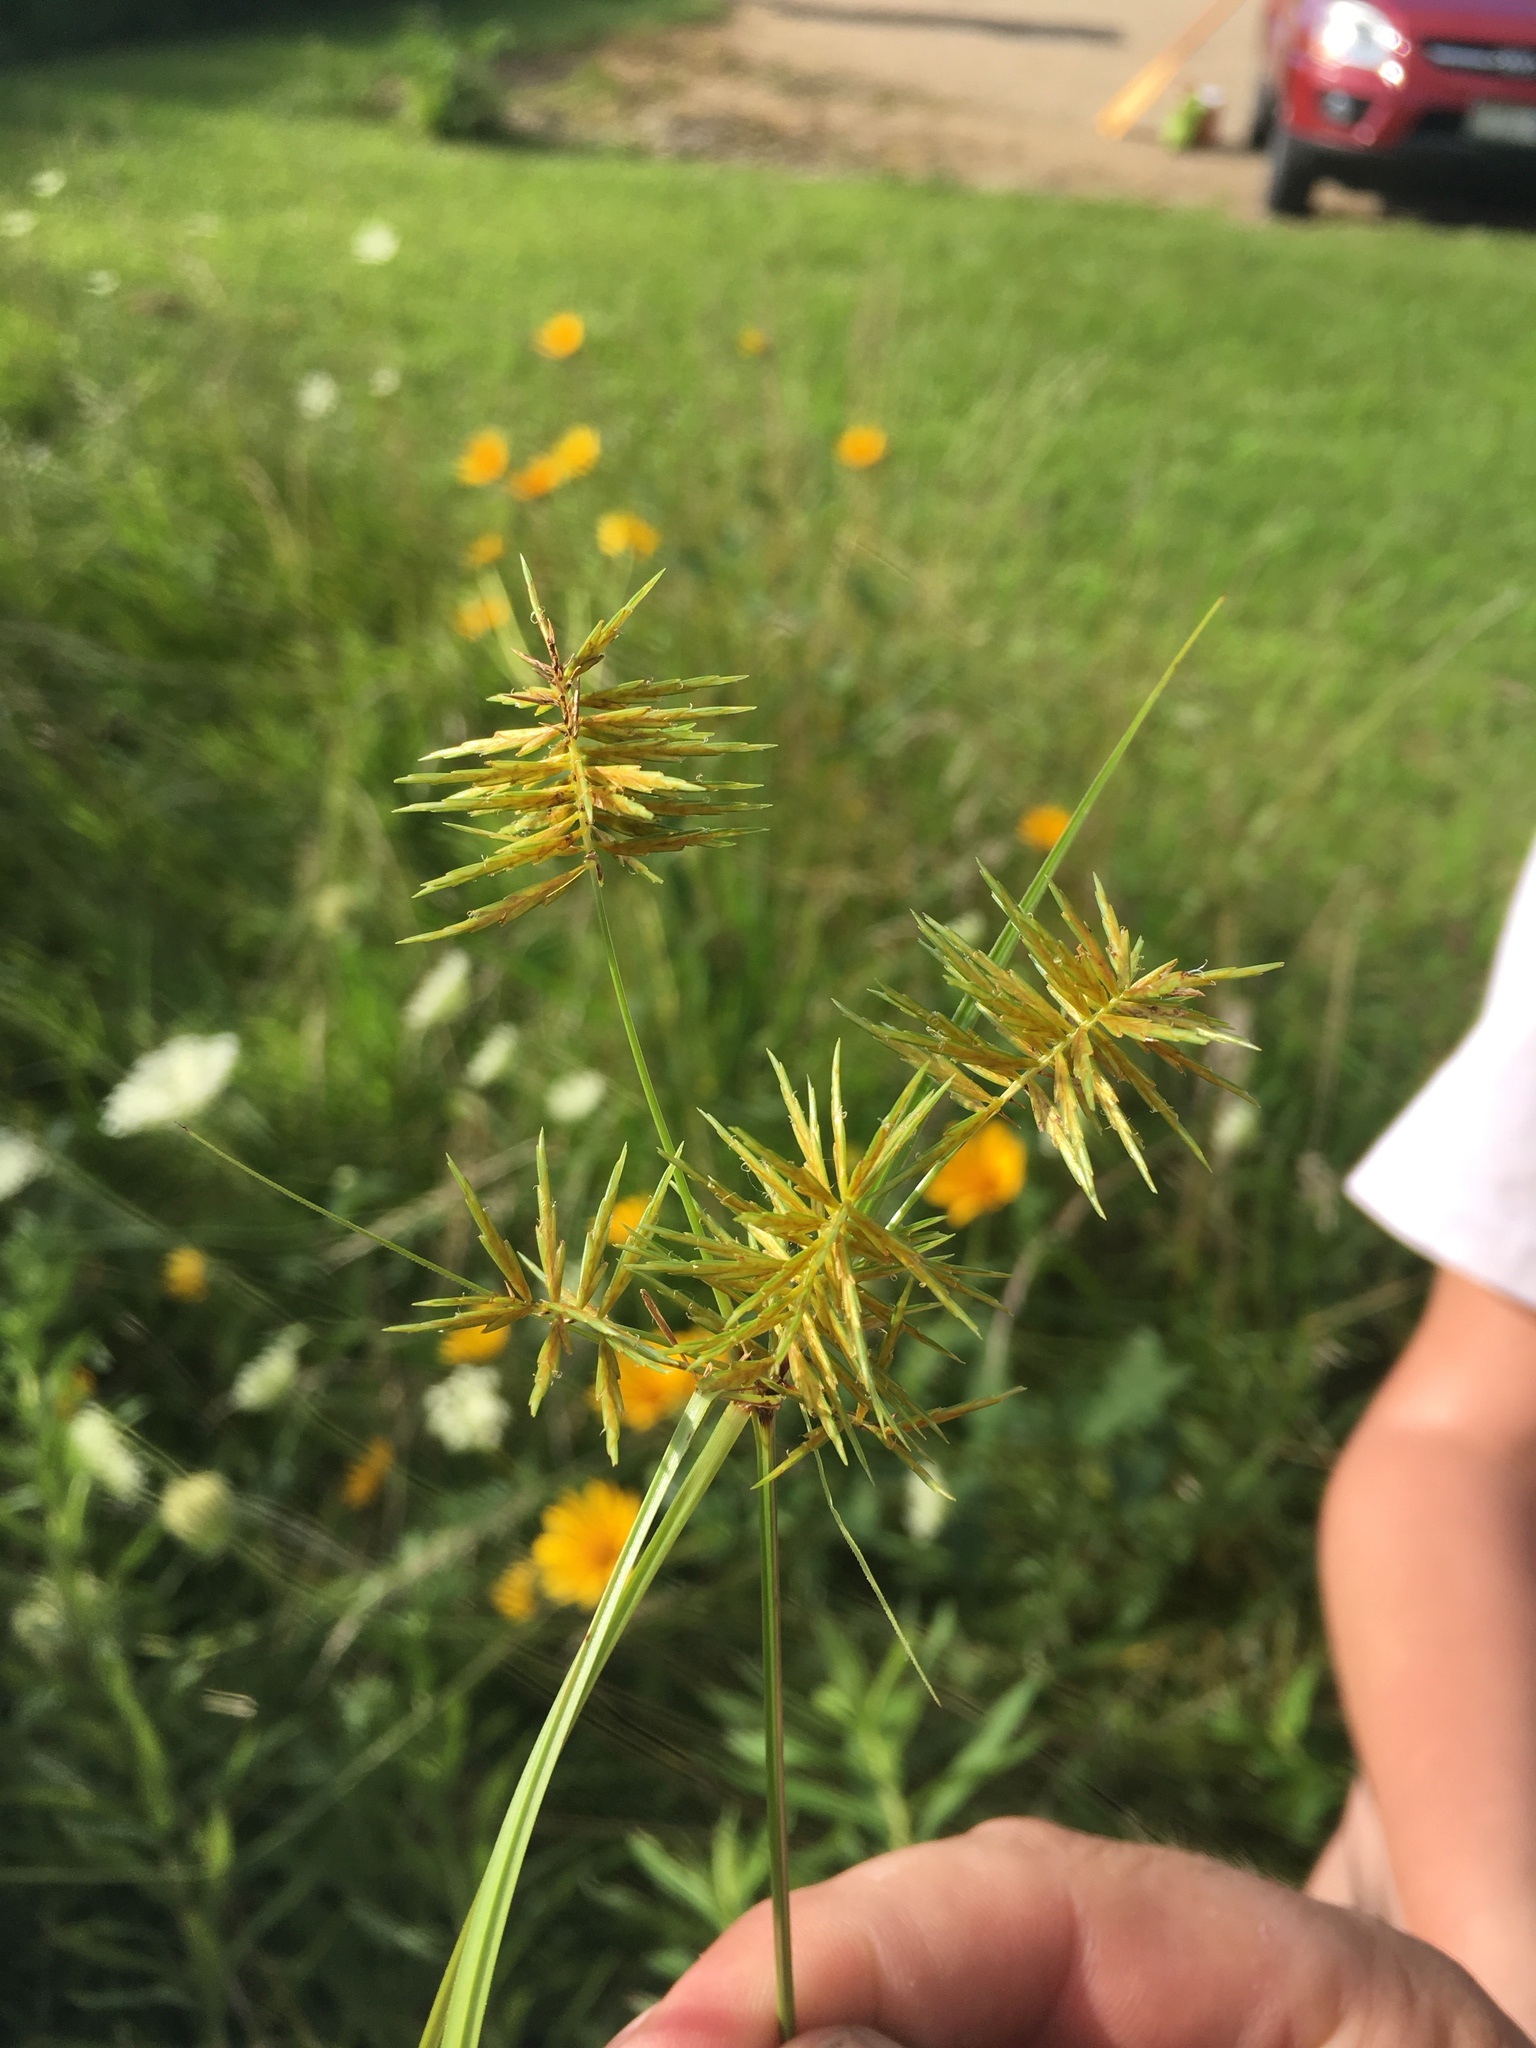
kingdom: Plantae
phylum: Tracheophyta
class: Liliopsida
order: Poales
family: Cyperaceae
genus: Cyperus
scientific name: Cyperus strigosus
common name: False nutsedge
